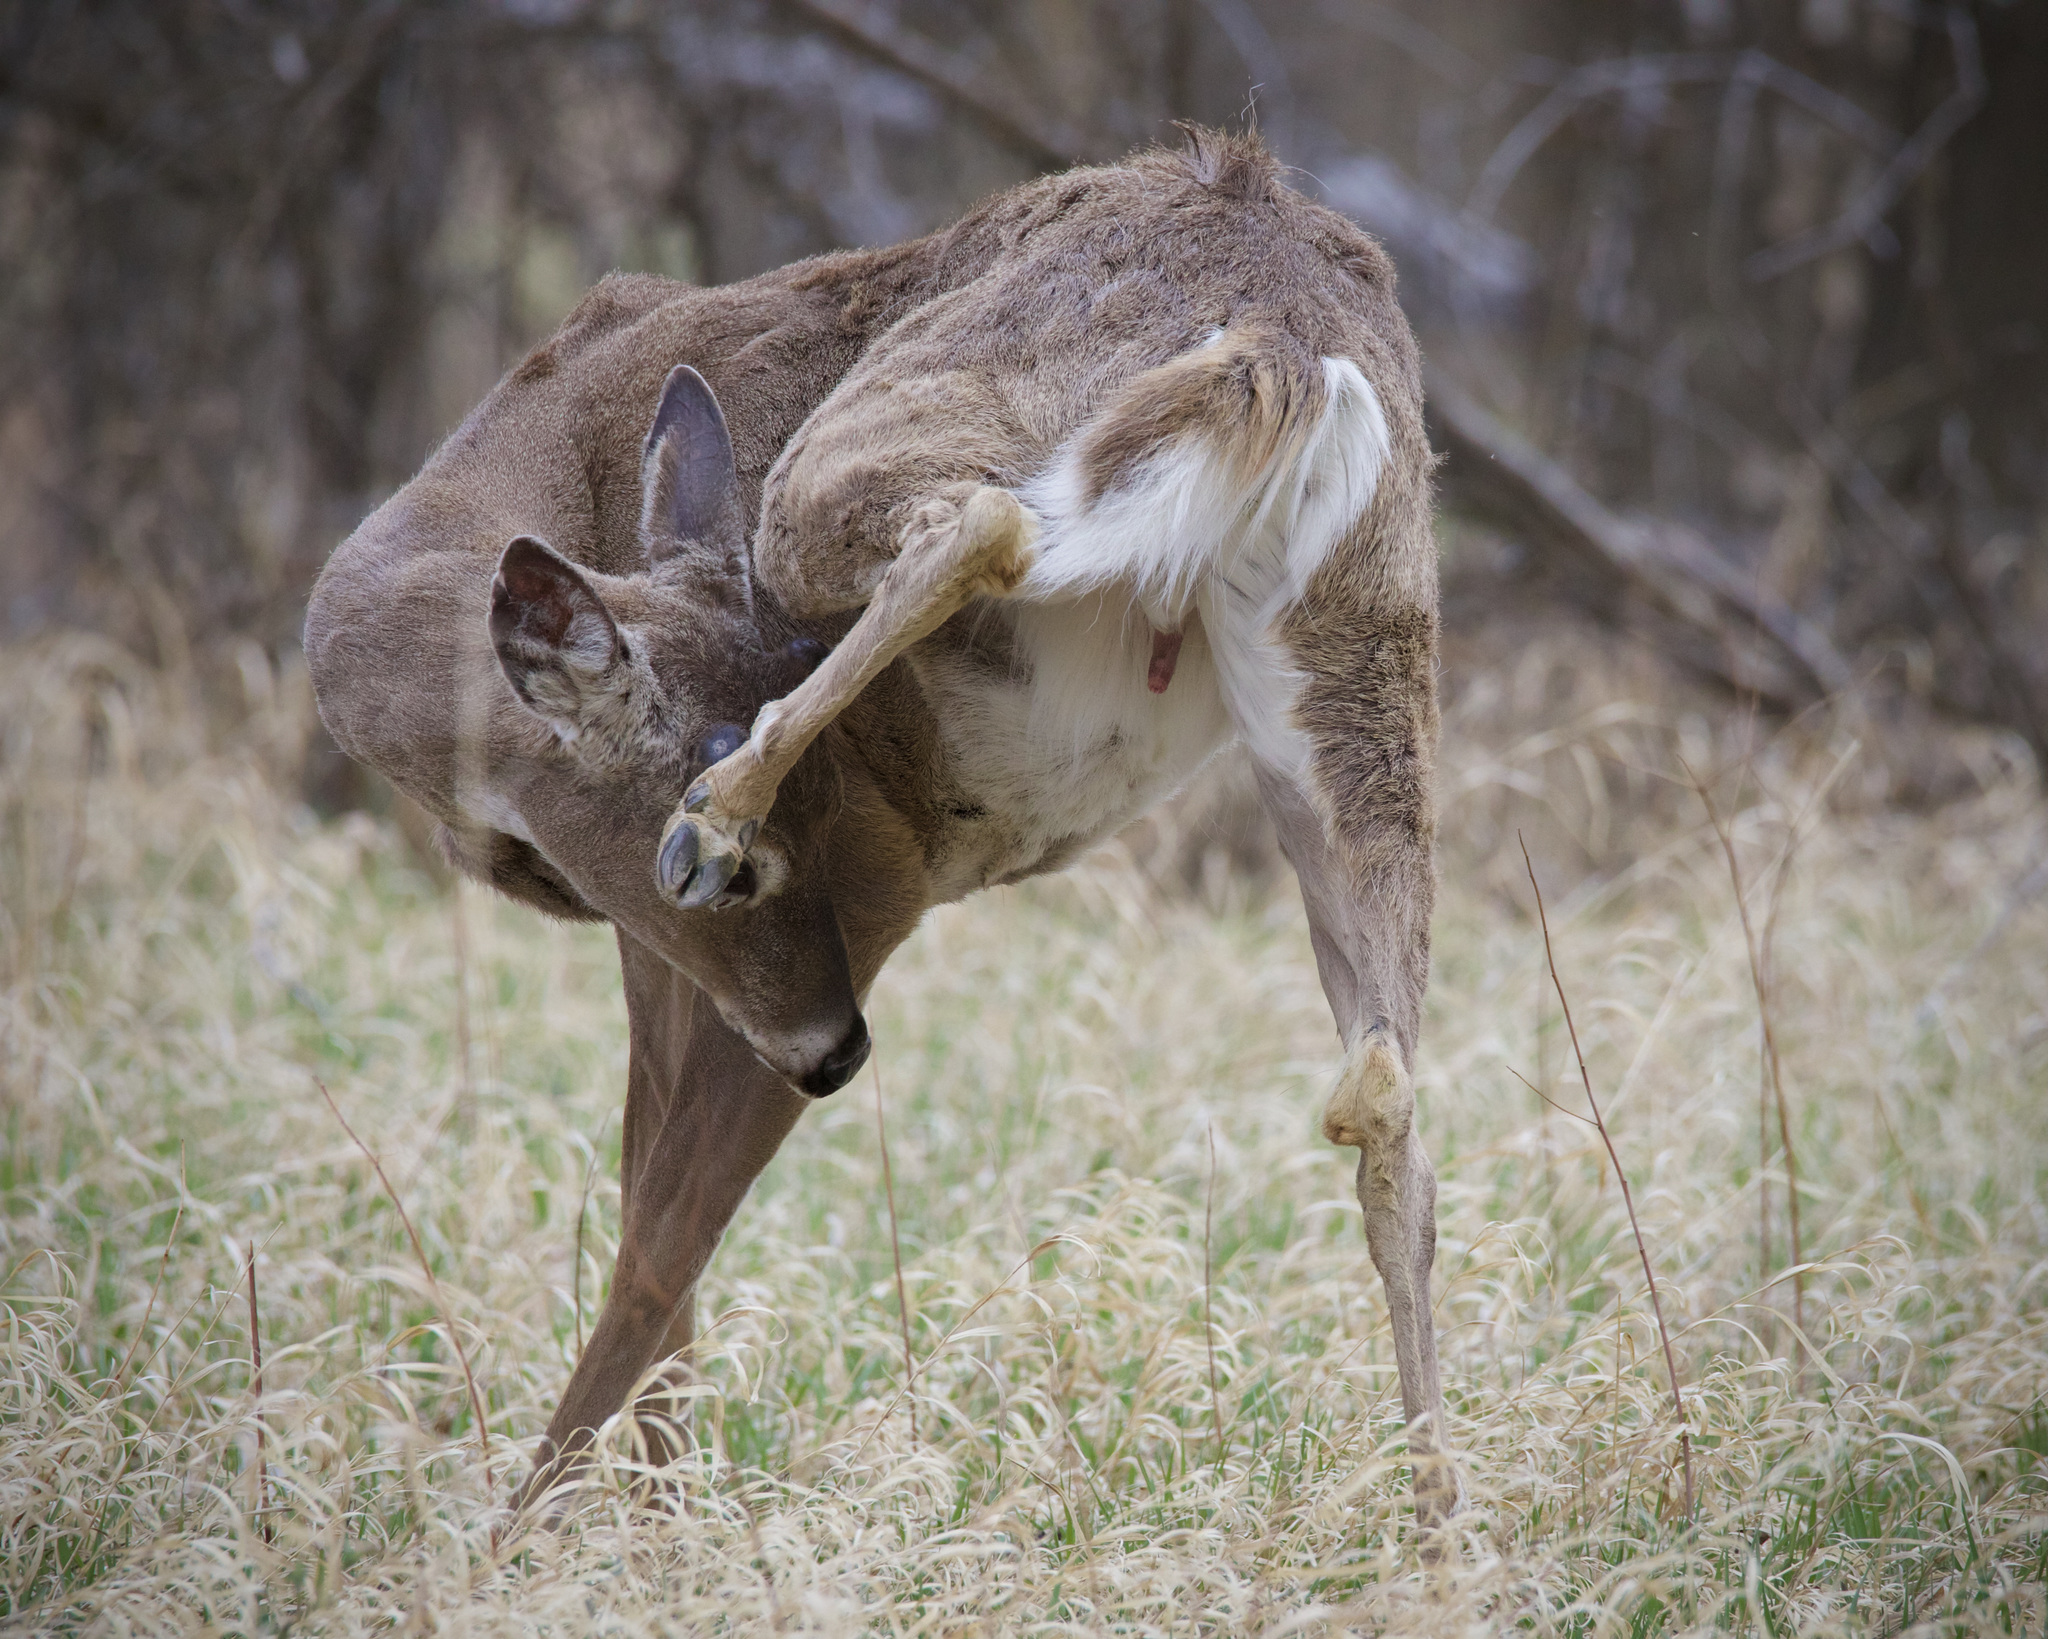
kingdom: Animalia
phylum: Chordata
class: Mammalia
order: Artiodactyla
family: Cervidae
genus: Odocoileus
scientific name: Odocoileus virginianus
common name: White-tailed deer
